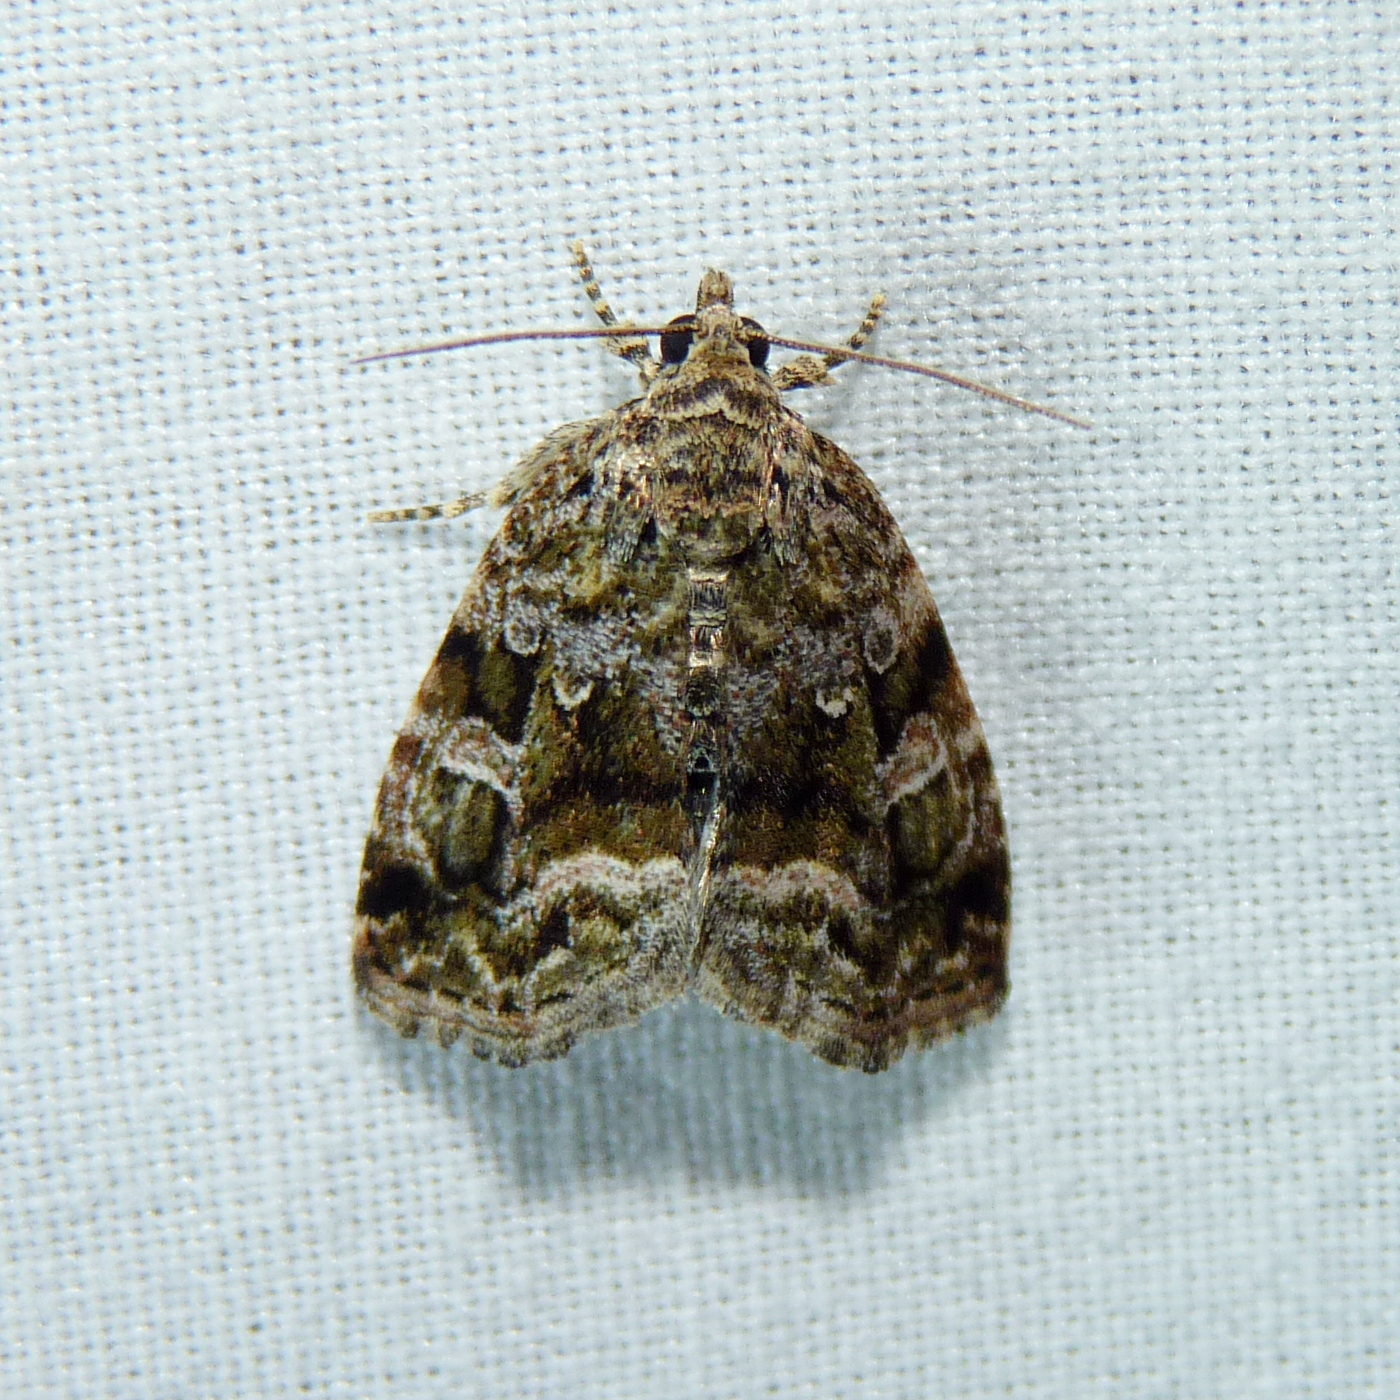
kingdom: Animalia
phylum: Arthropoda
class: Insecta
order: Lepidoptera
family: Noctuidae
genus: Protodeltote
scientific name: Protodeltote muscosula
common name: Large mossy glyph
